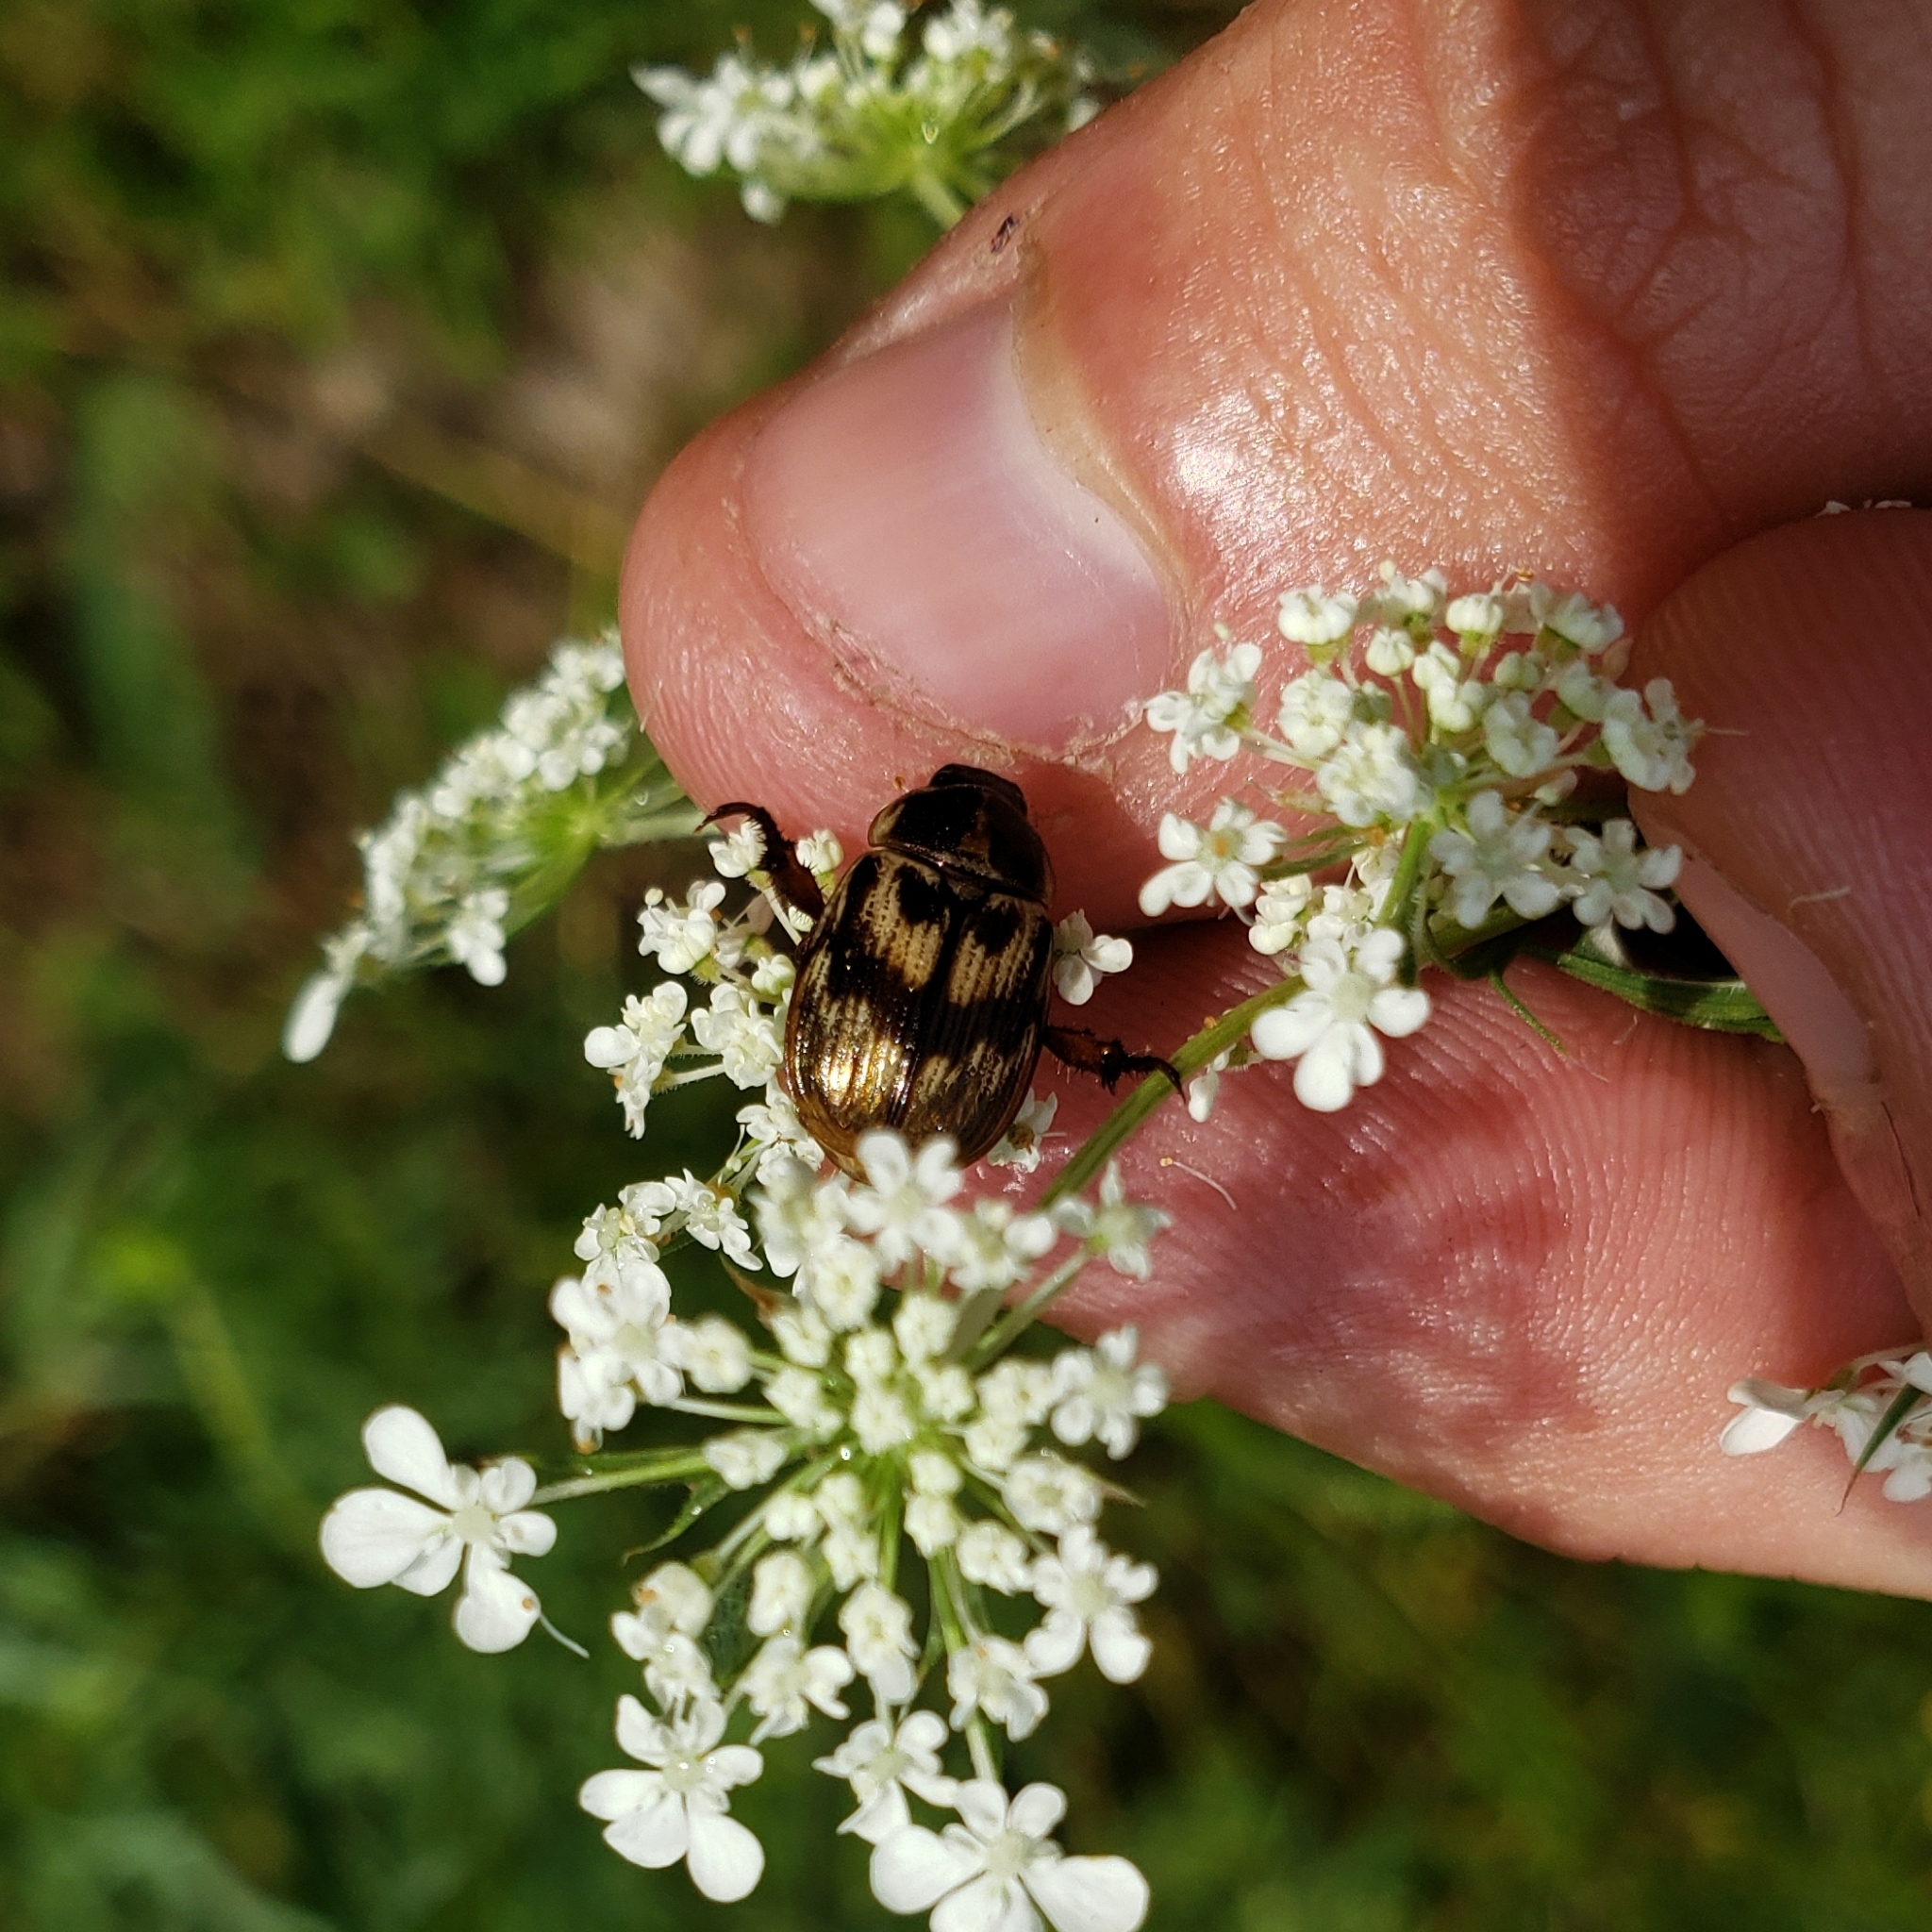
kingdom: Animalia
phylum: Arthropoda
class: Insecta
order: Coleoptera
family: Scarabaeidae
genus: Exomala
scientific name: Exomala orientalis
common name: Oriental beetle
